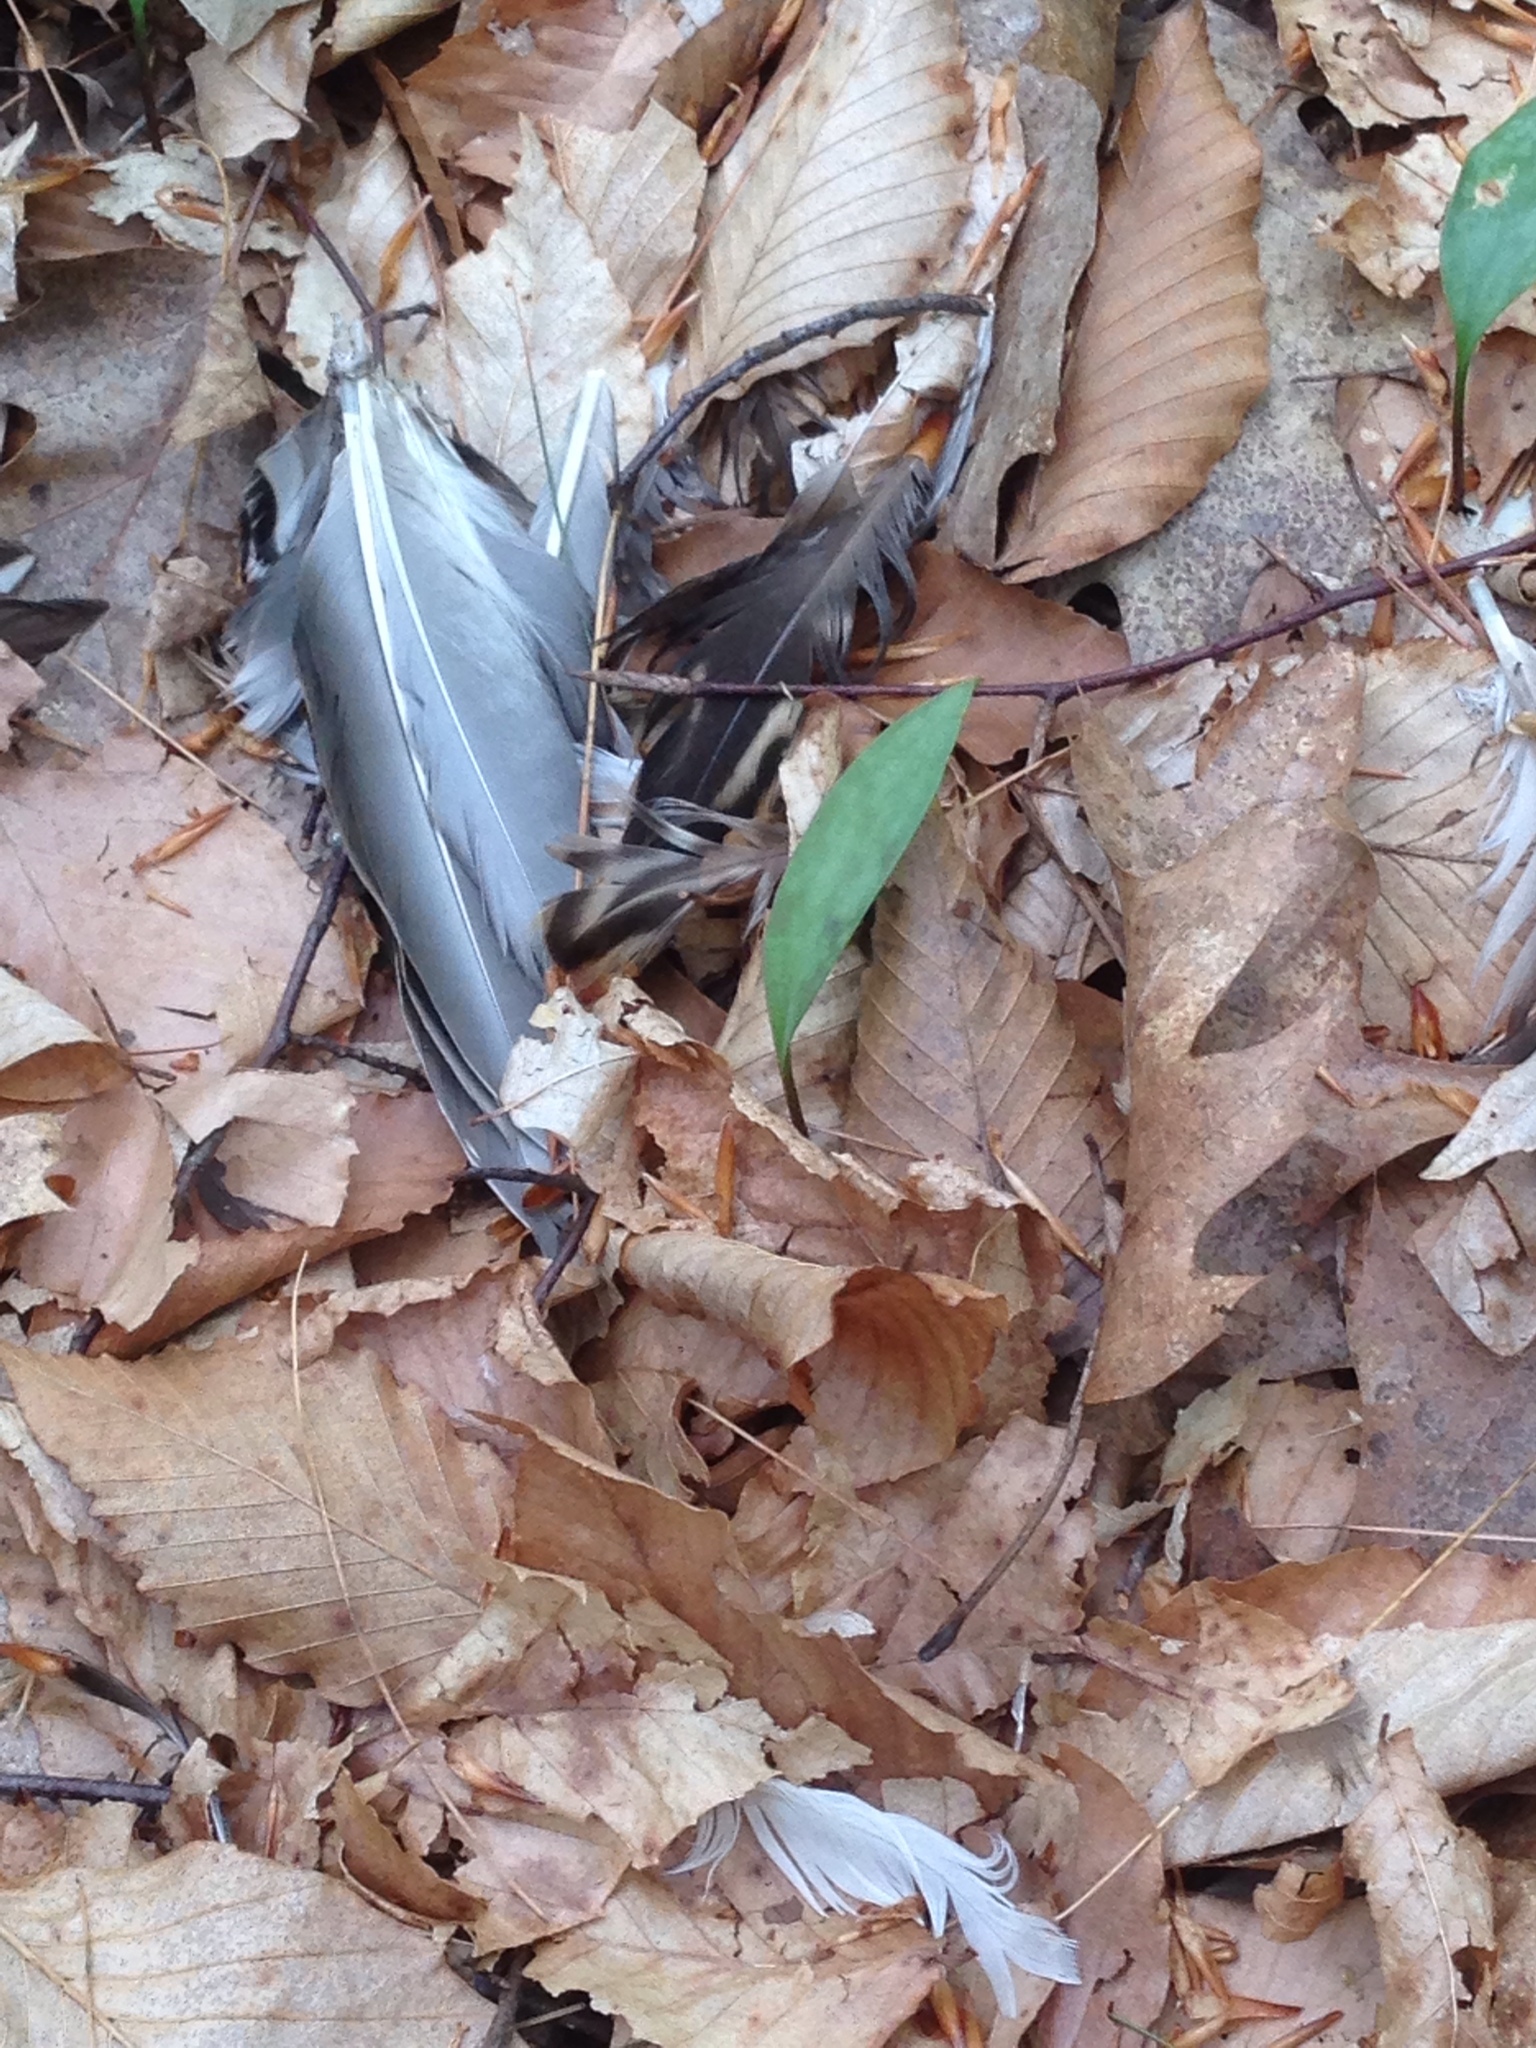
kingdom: Animalia
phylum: Chordata
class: Aves
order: Anseriformes
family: Anatidae
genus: Anas
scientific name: Anas platyrhynchos
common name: Mallard
